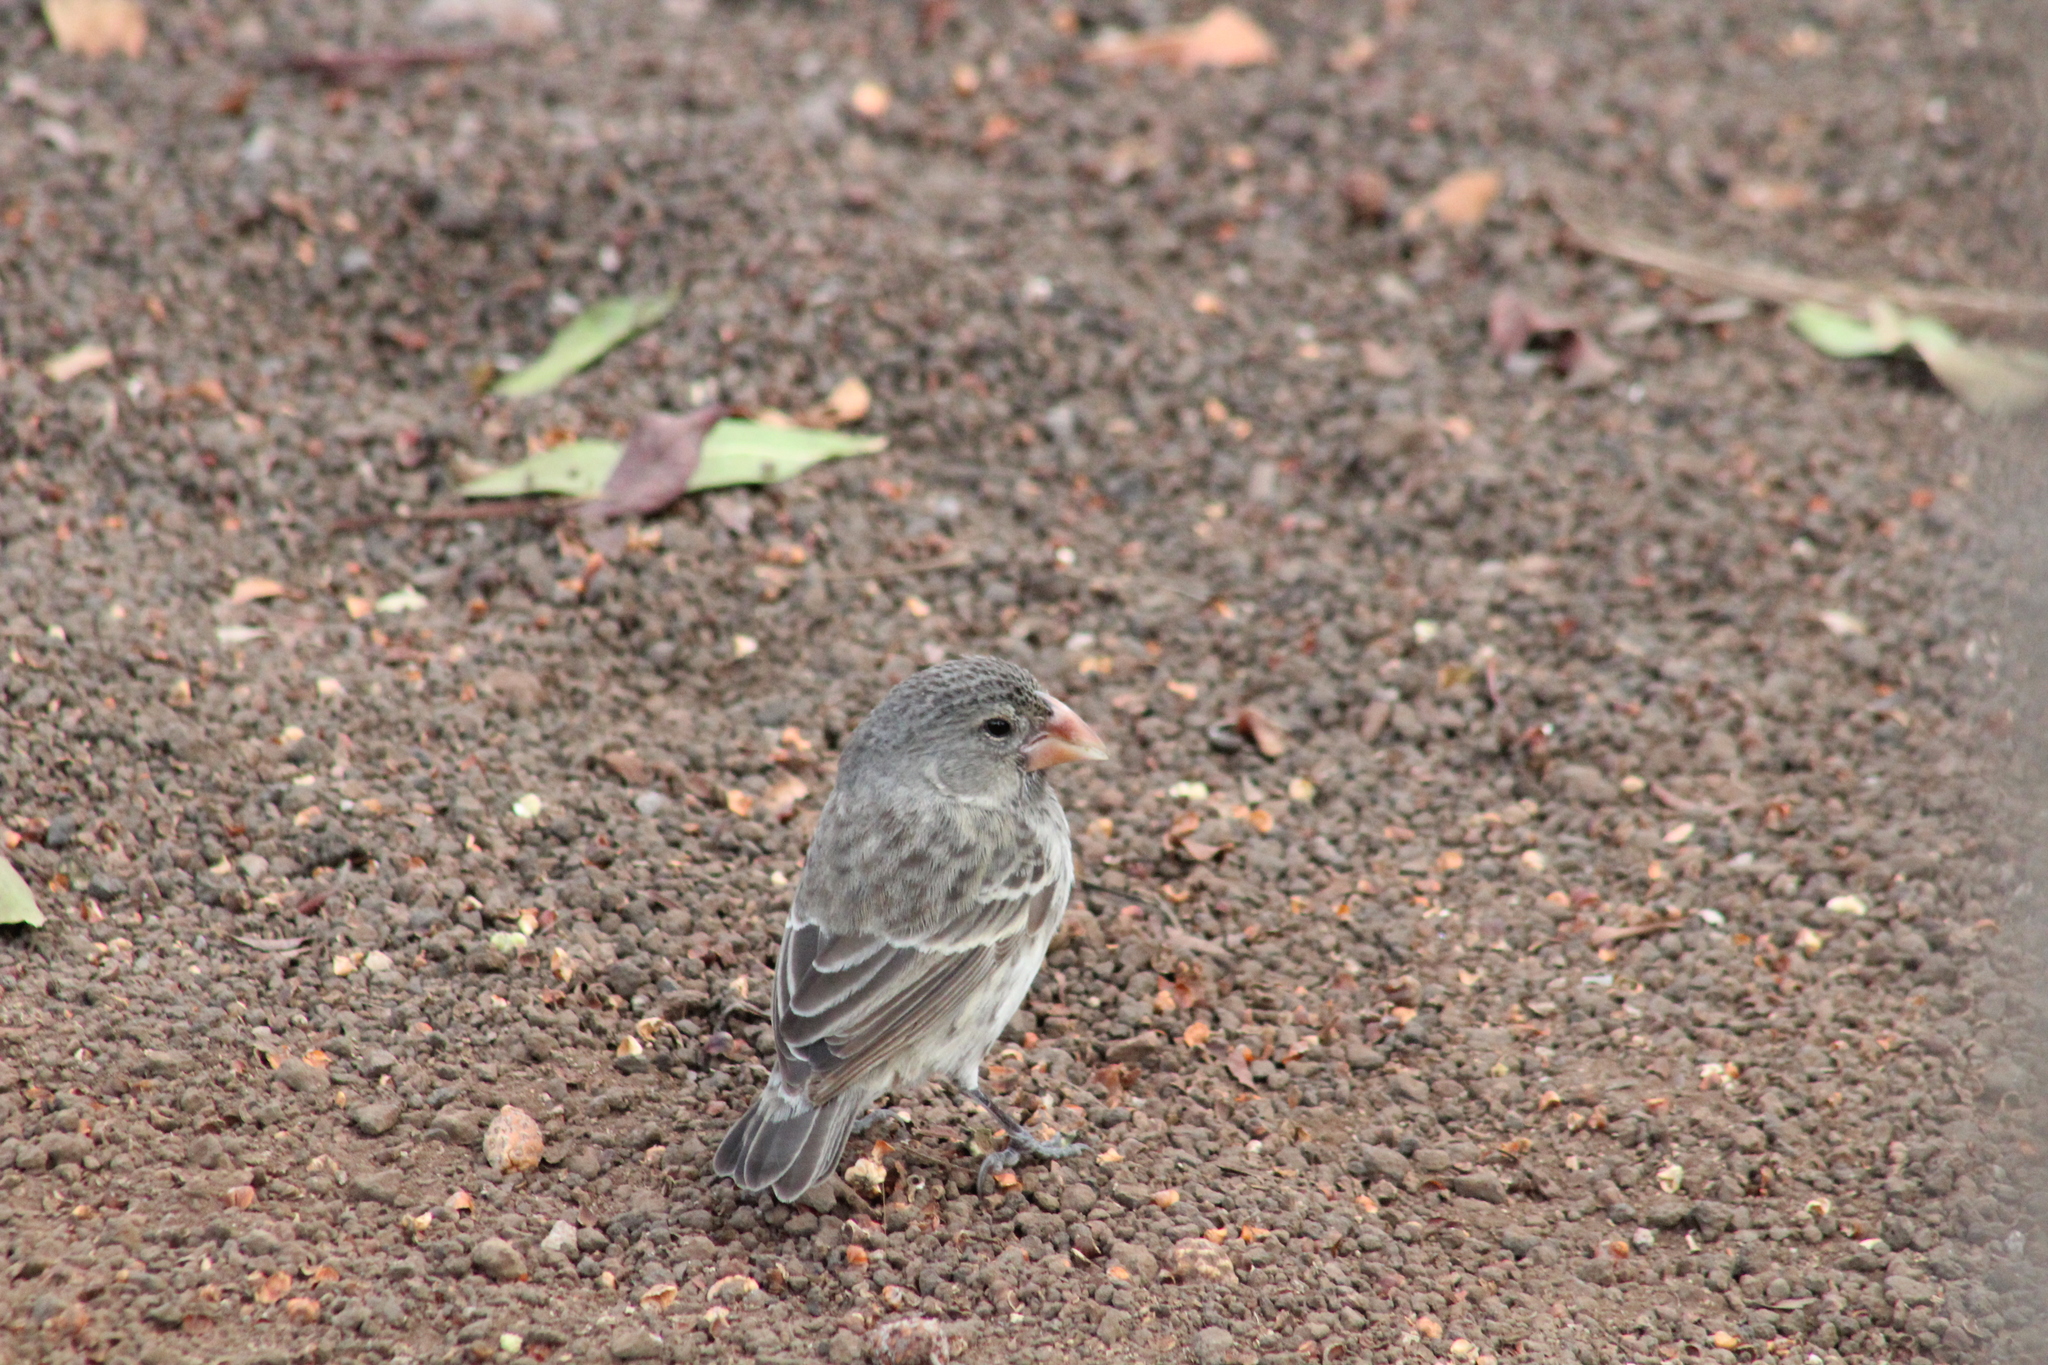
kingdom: Animalia
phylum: Chordata
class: Aves
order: Passeriformes
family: Thraupidae
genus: Geospiza
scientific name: Geospiza fortis
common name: Medium ground finch
